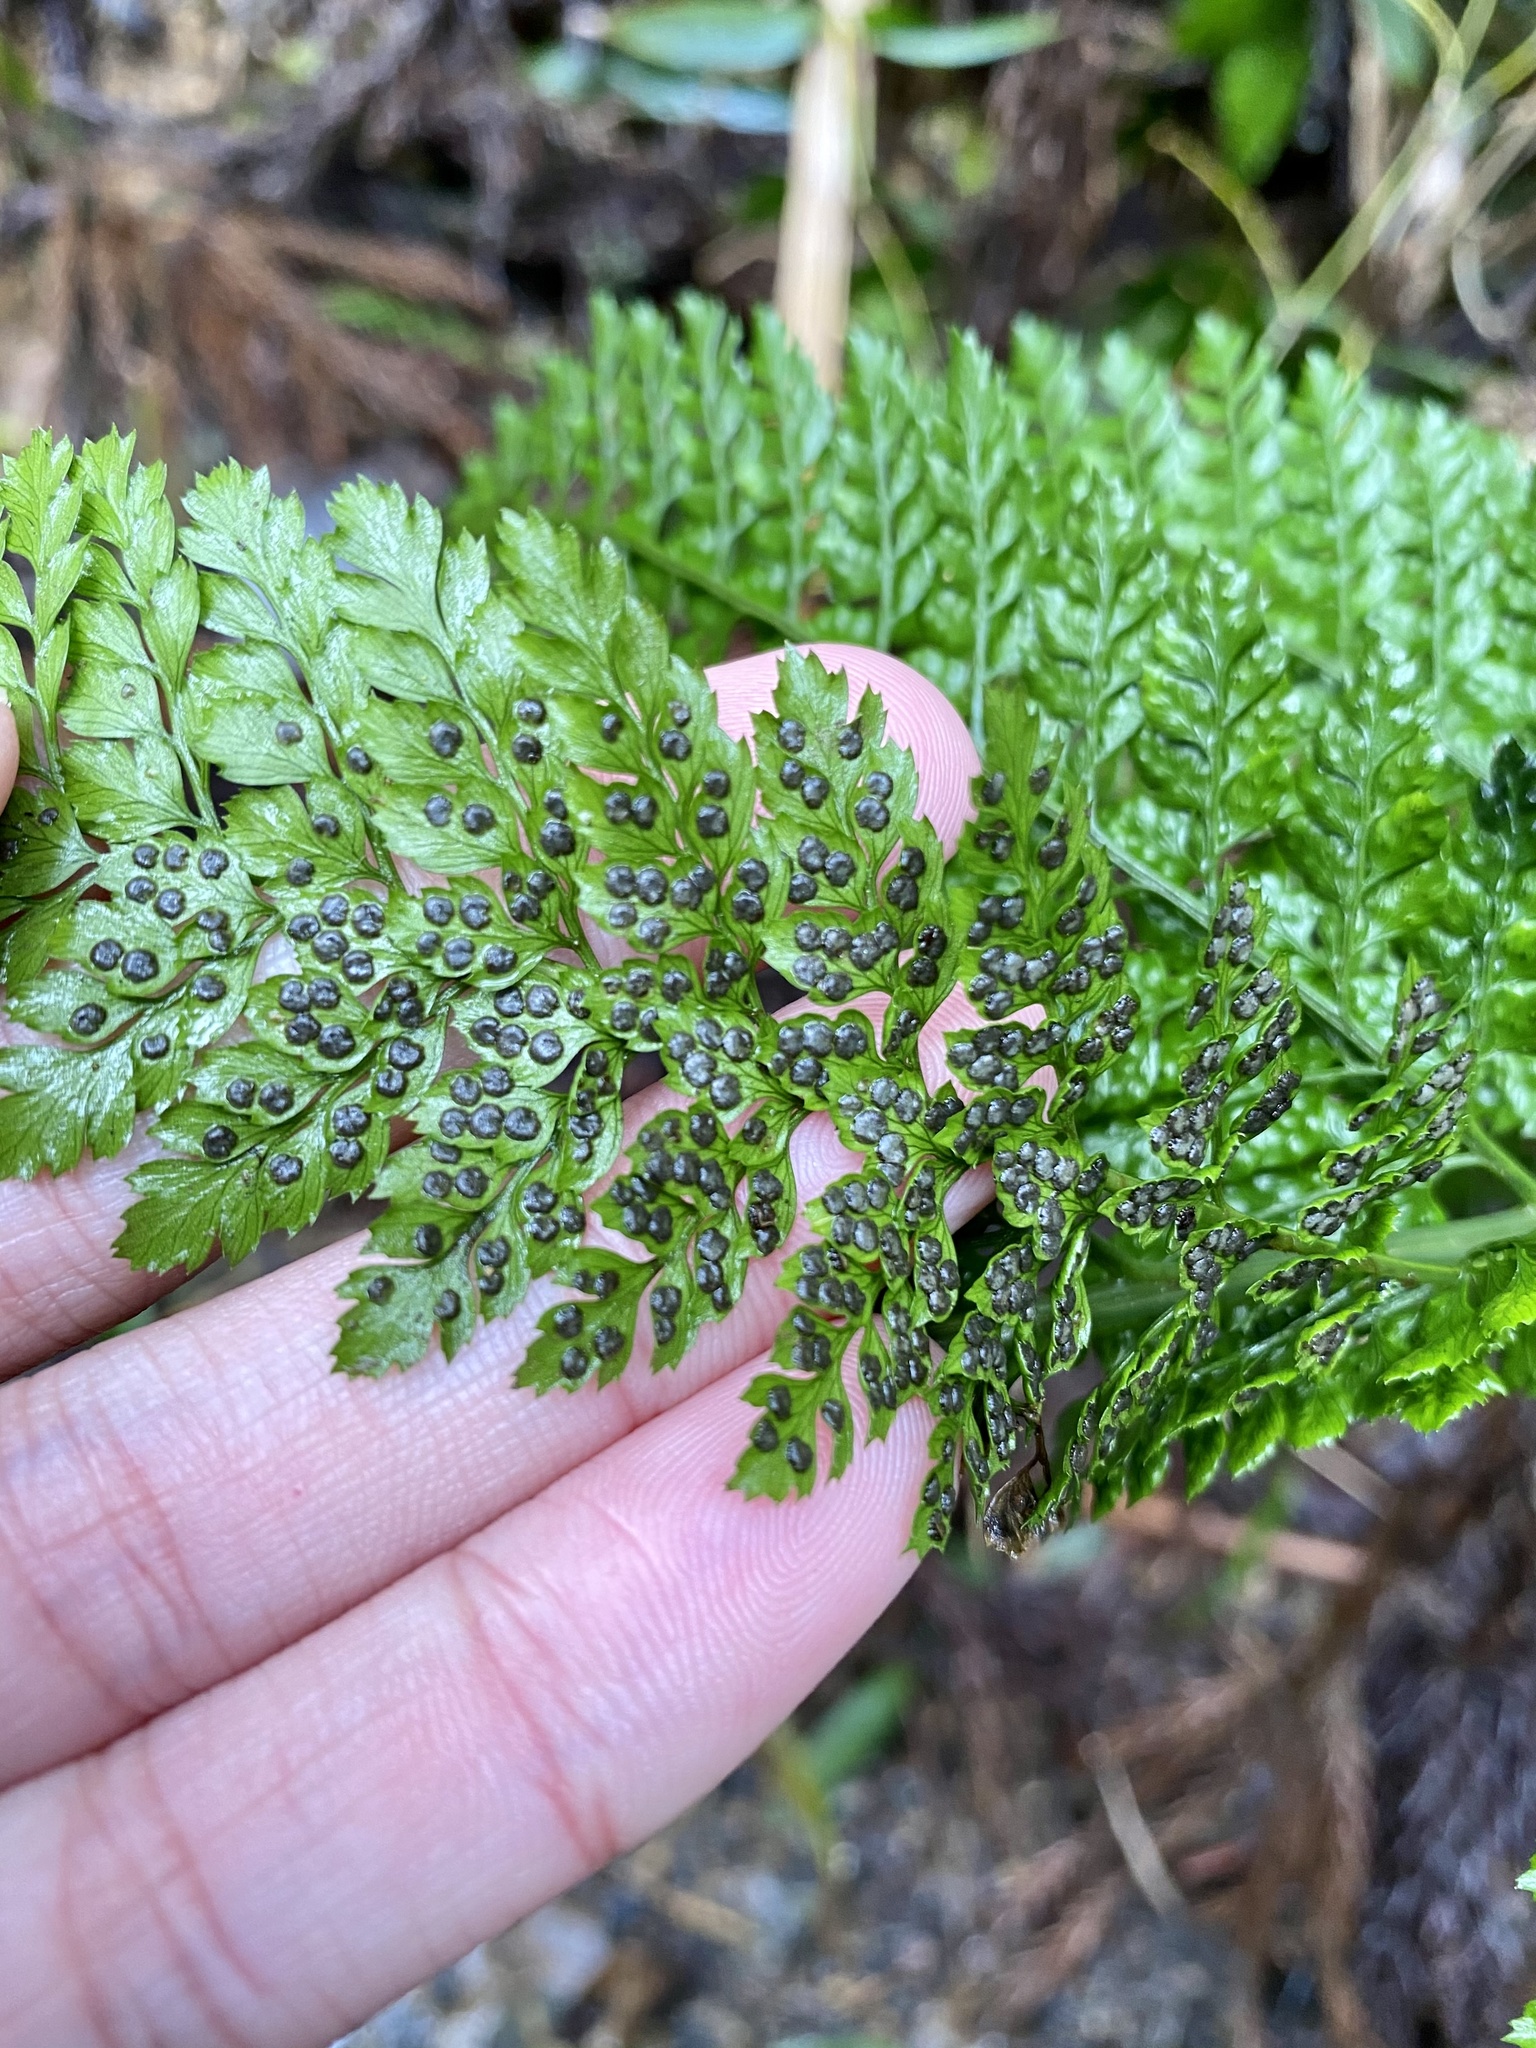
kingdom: Plantae
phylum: Tracheophyta
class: Polypodiopsida
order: Polypodiales
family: Dryopteridaceae
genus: Arachniodes
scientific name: Arachniodes standishii
